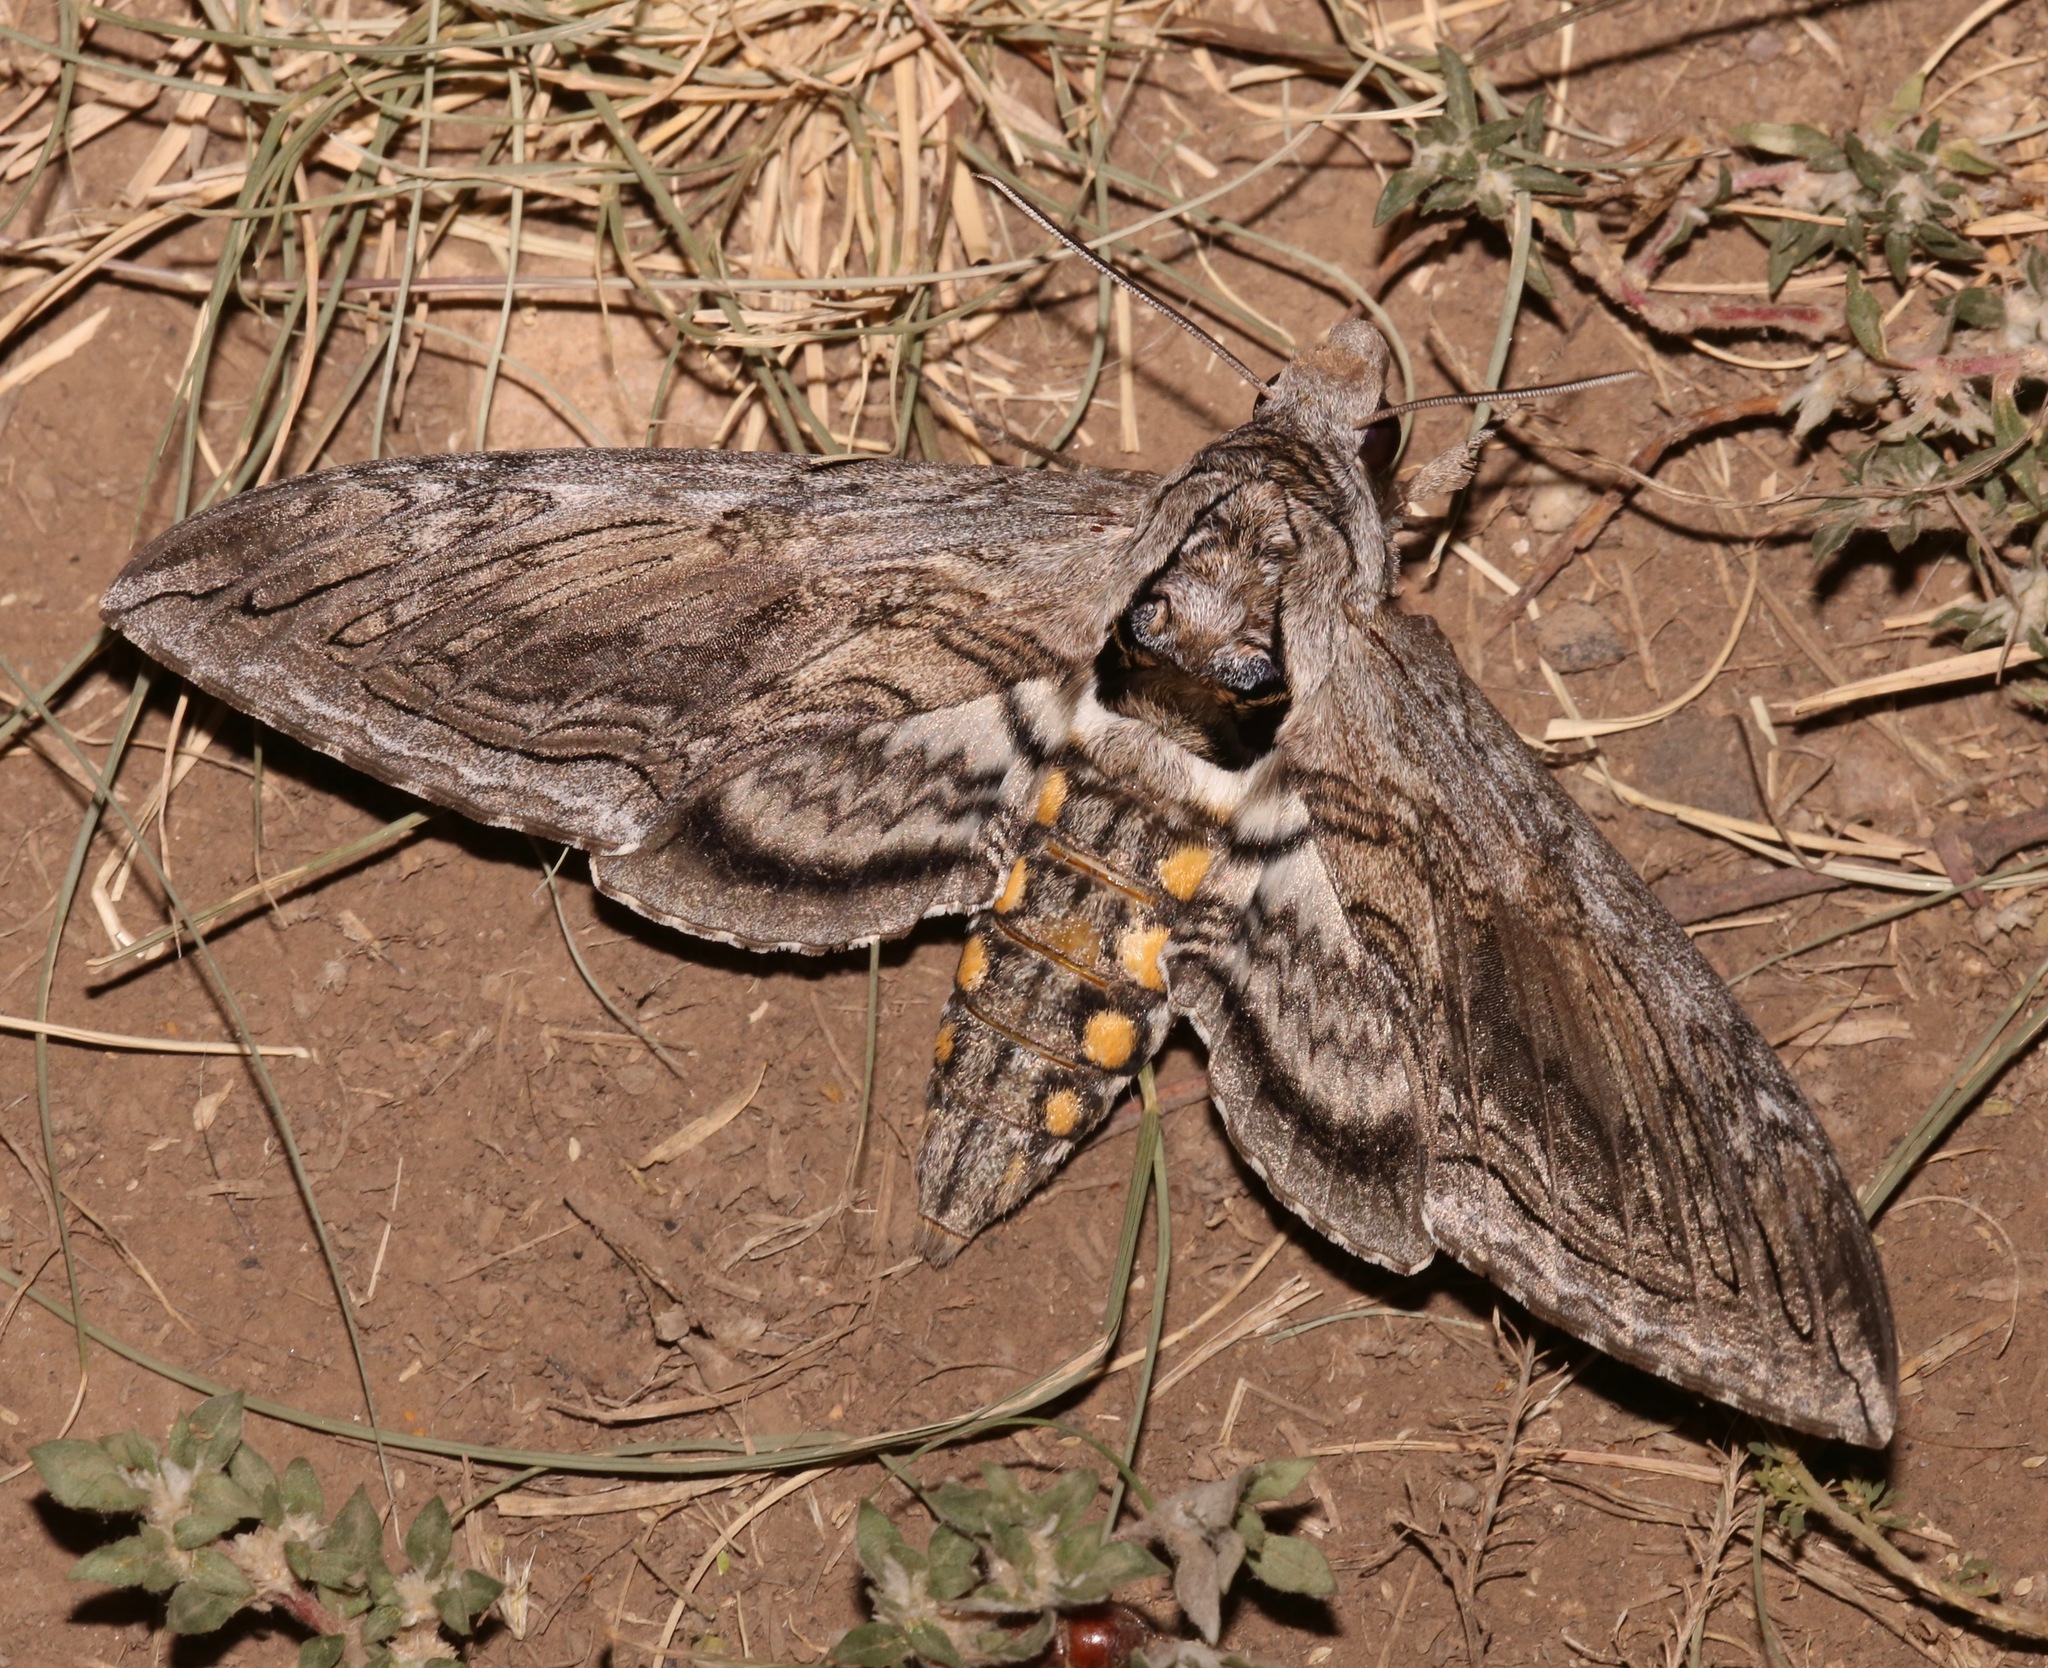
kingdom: Animalia
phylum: Arthropoda
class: Insecta
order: Lepidoptera
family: Sphingidae
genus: Manduca
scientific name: Manduca quinquemaculatus
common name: Five-spotted hawk-moth
